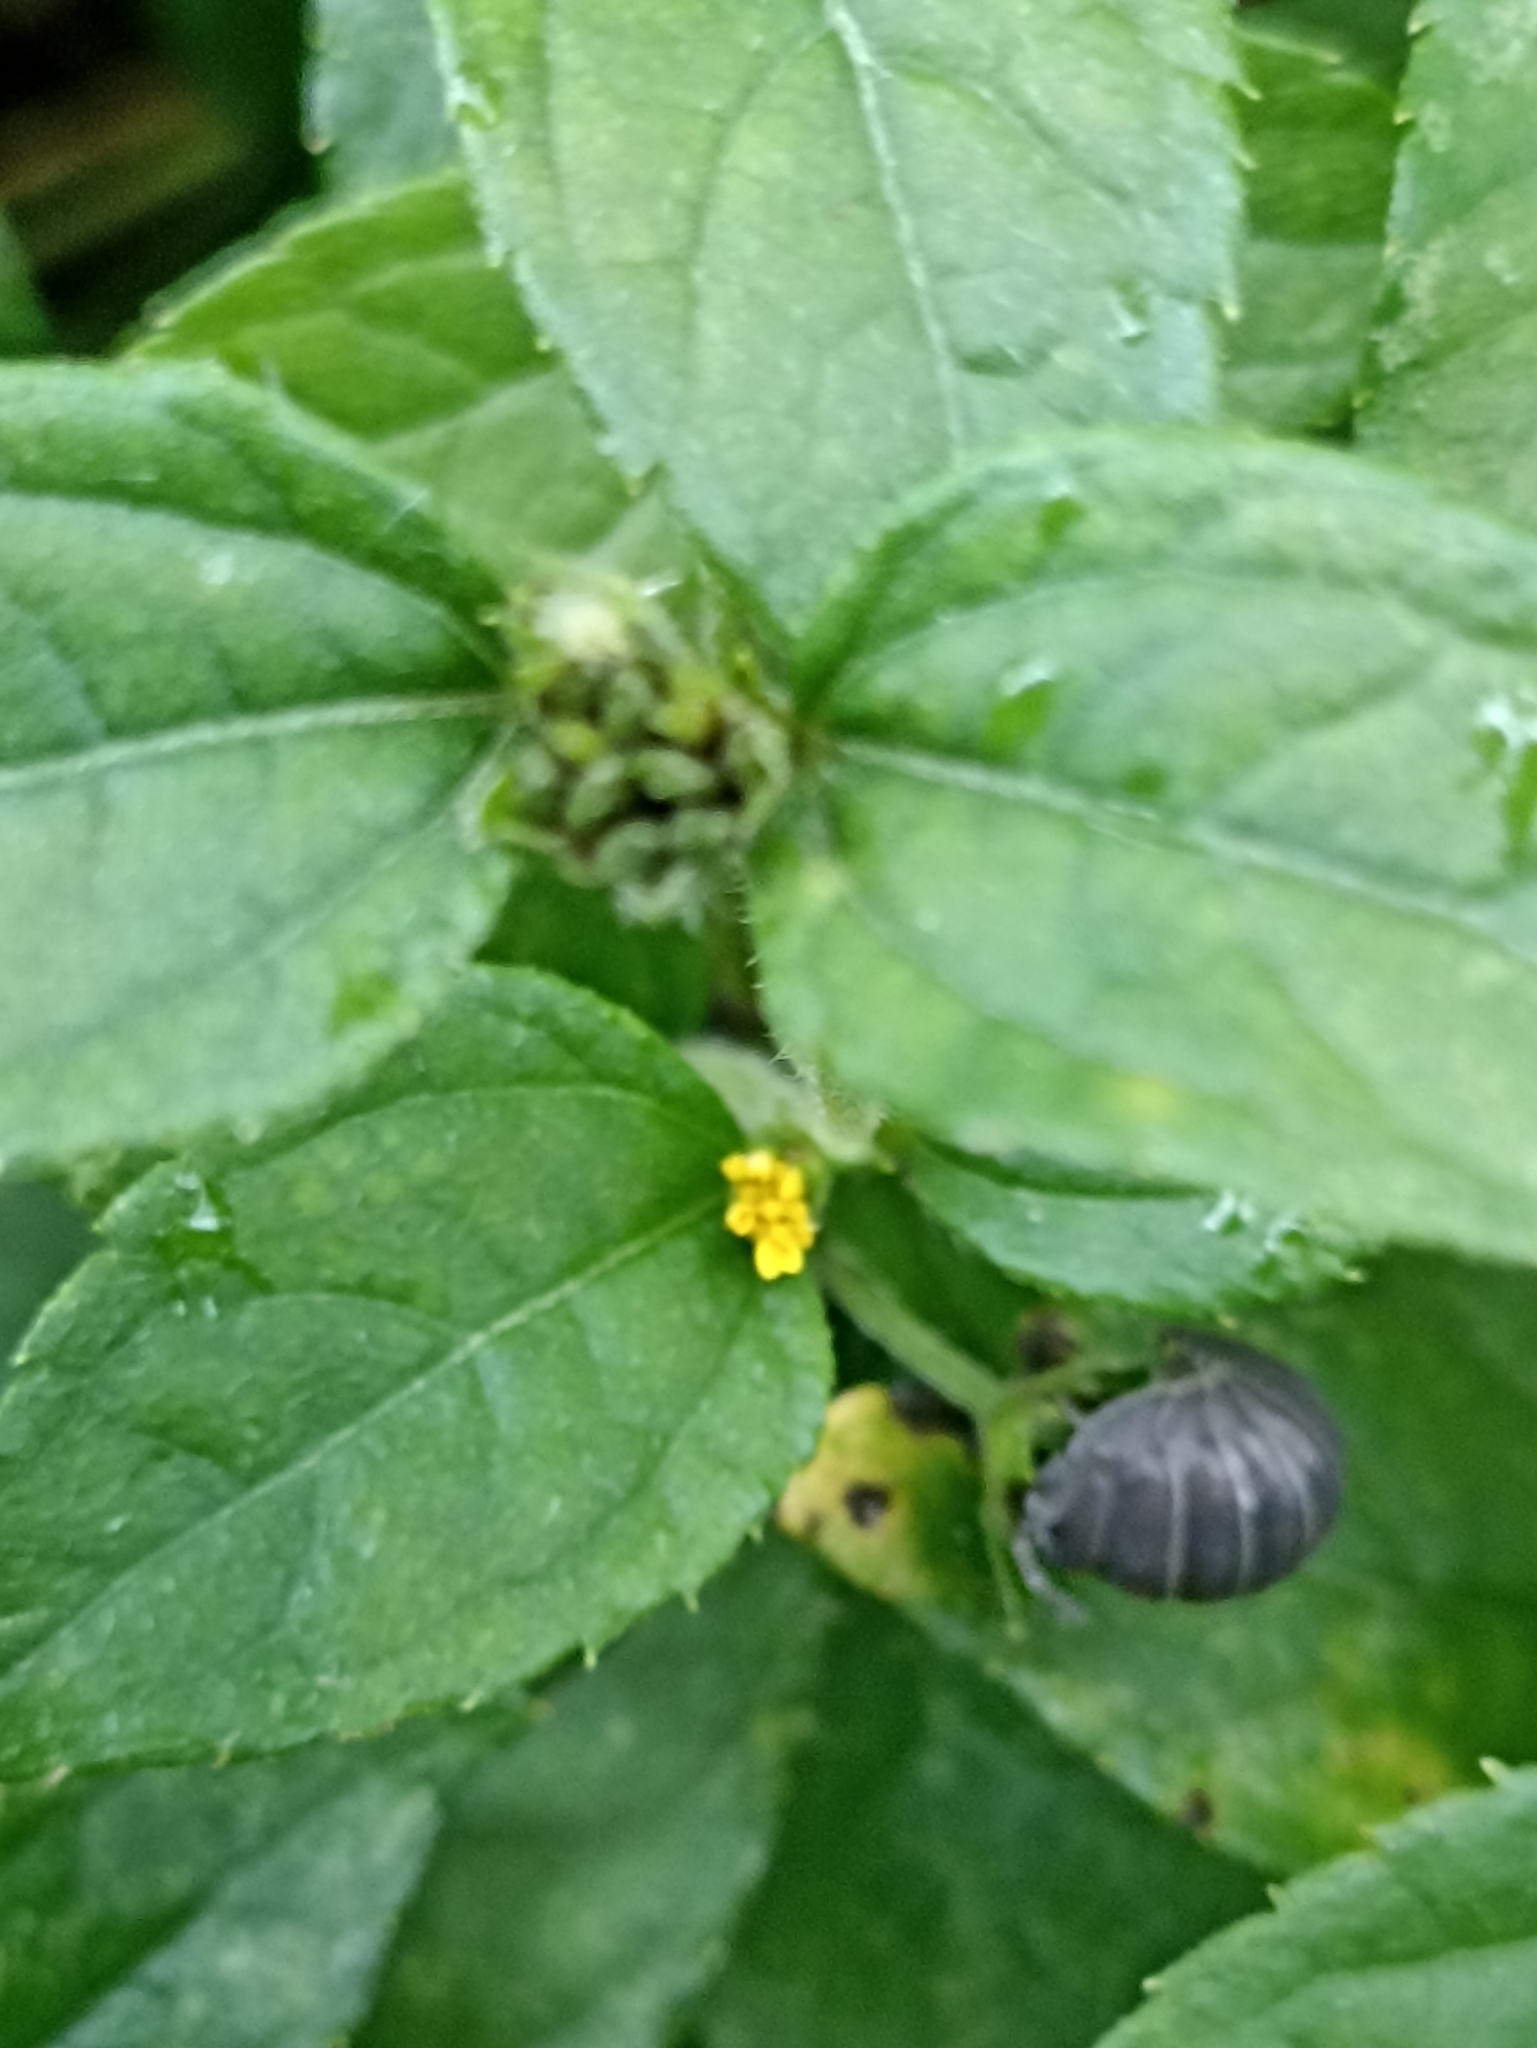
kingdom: Animalia
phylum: Arthropoda
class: Malacostraca
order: Isopoda
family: Armadillidiidae
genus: Armadillidium
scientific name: Armadillidium nasatum
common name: Isopod
